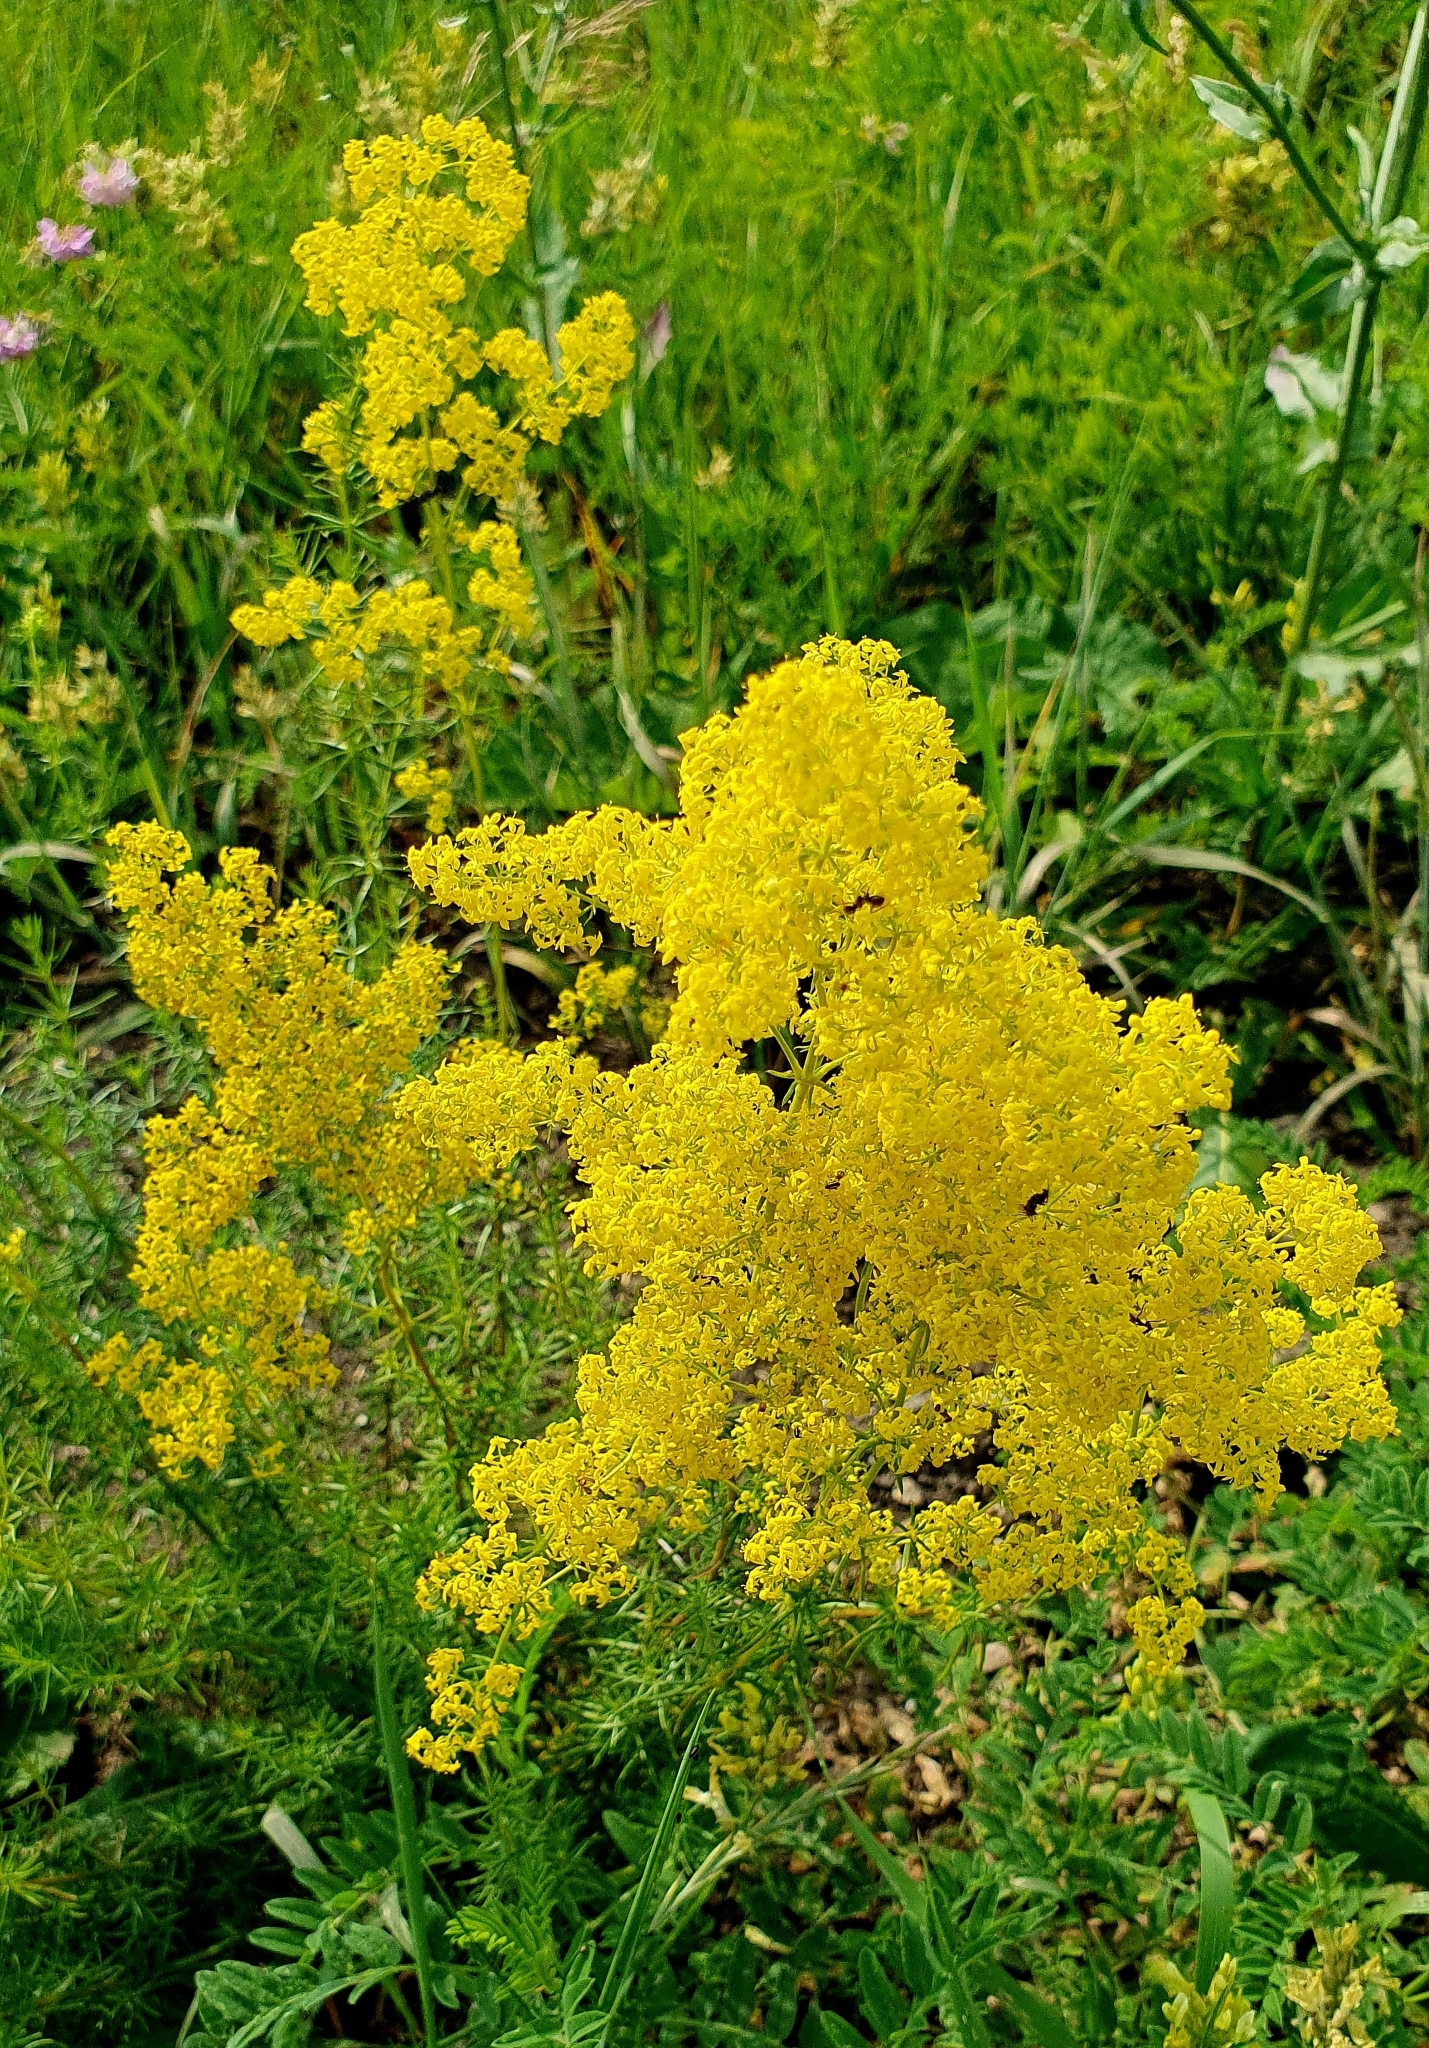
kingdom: Plantae
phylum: Tracheophyta
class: Magnoliopsida
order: Gentianales
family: Rubiaceae
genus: Galium
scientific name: Galium verum
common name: Lady's bedstraw
